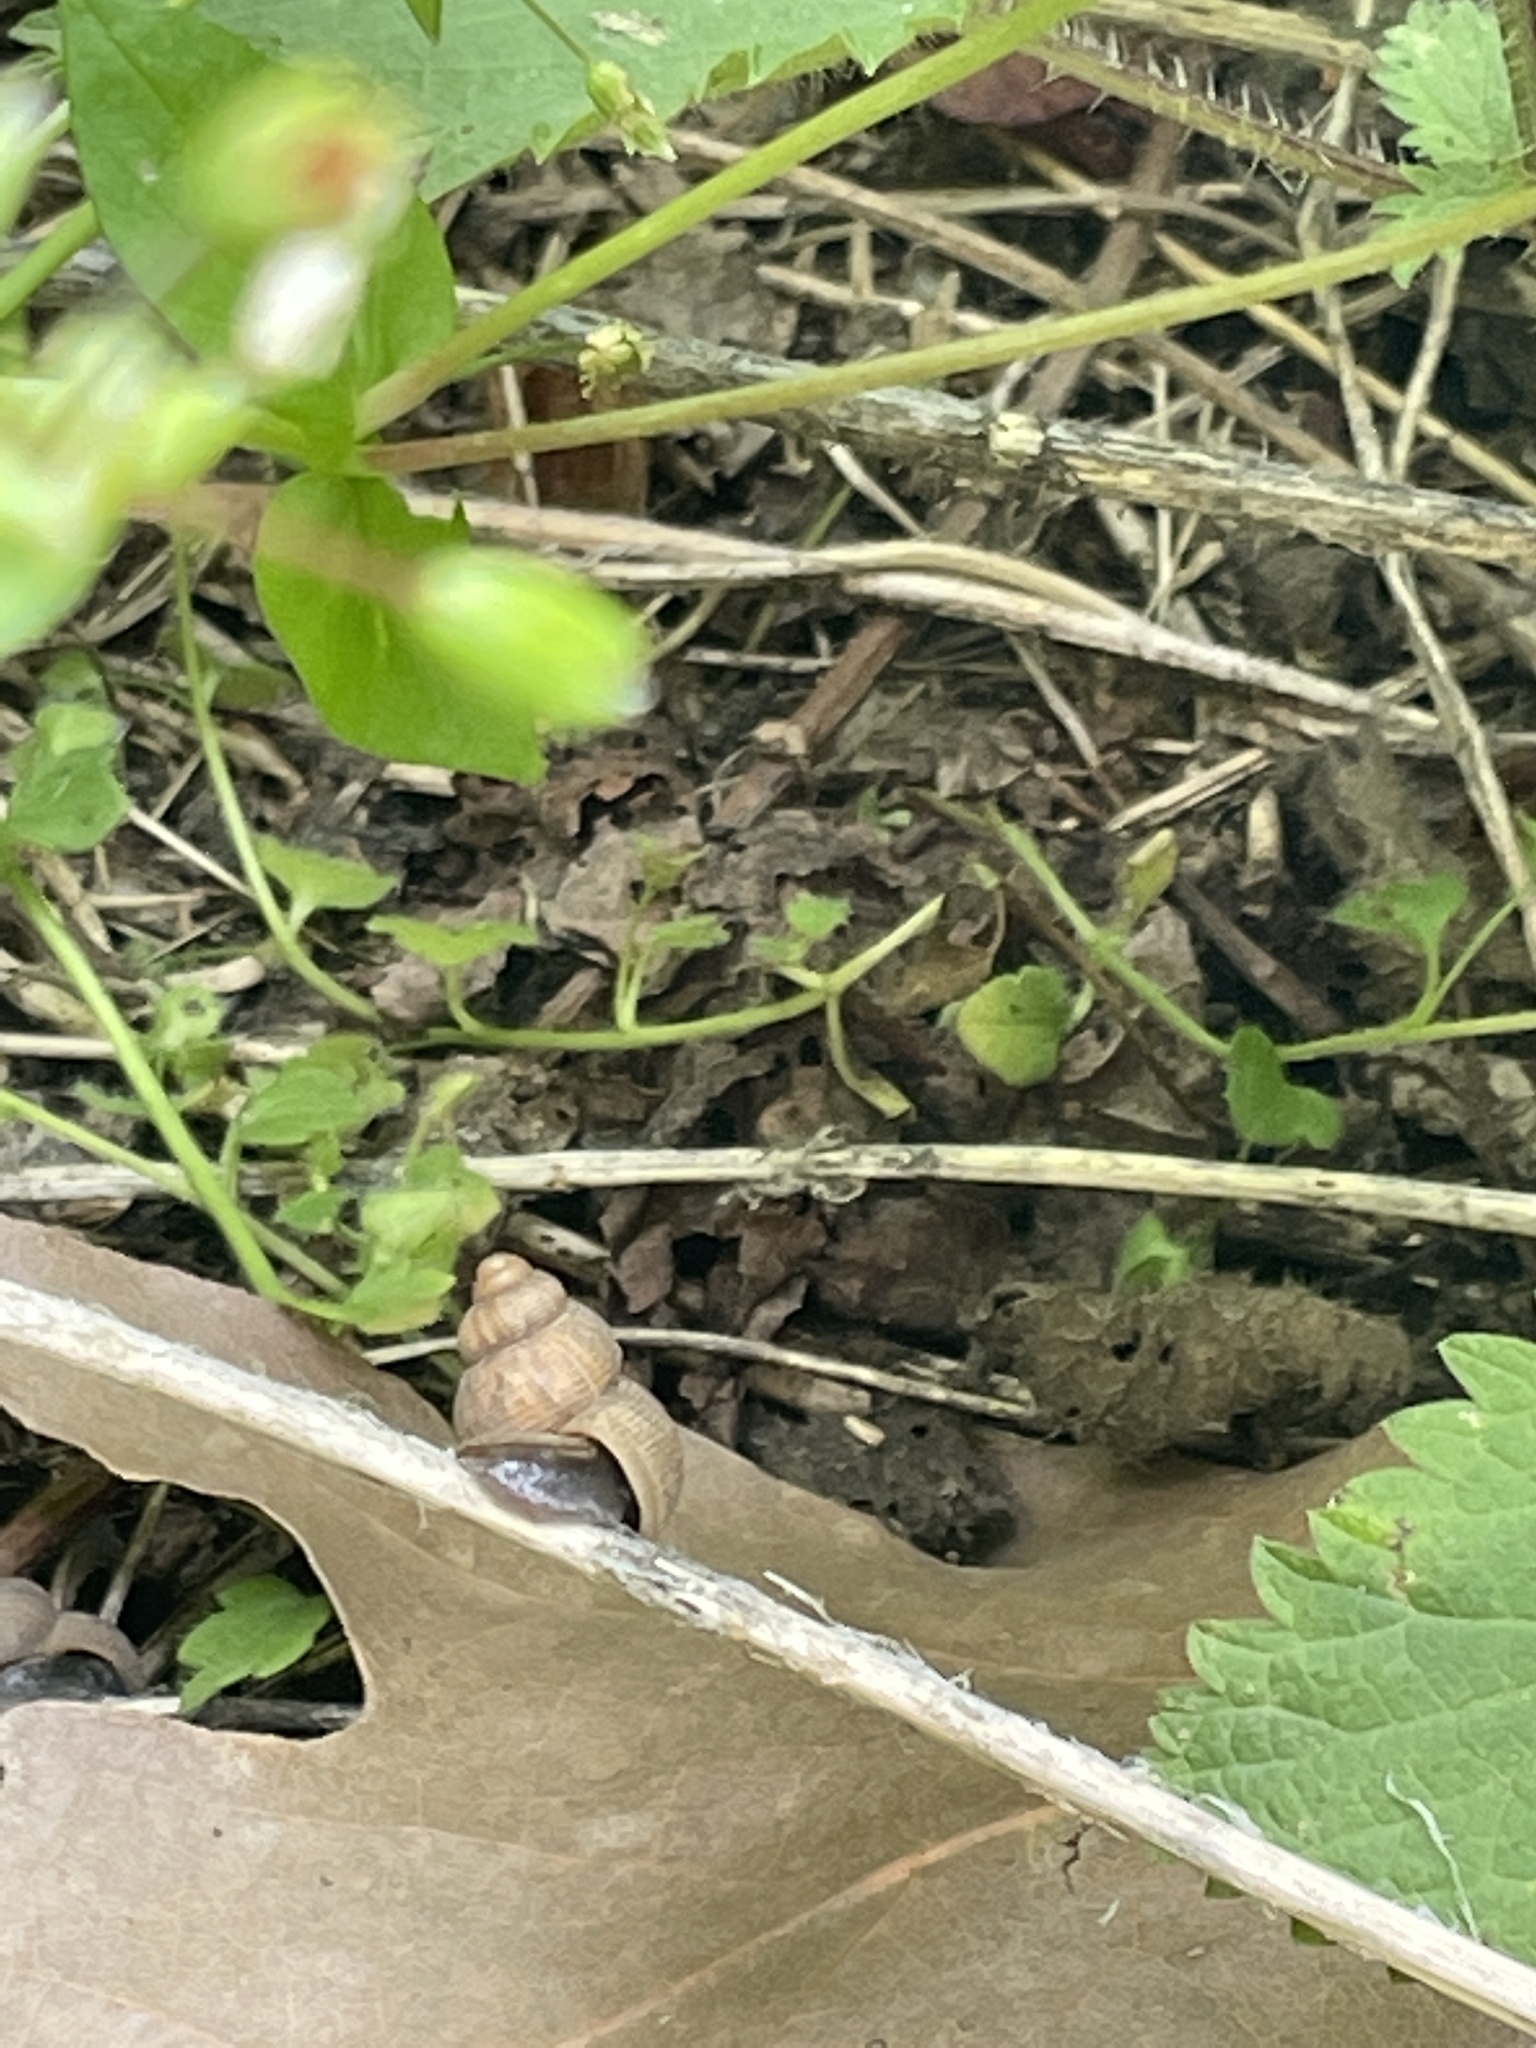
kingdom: Animalia
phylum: Mollusca
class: Gastropoda
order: Littorinimorpha
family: Pomatiidae
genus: Pomatias
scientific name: Pomatias elegans
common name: Red-mouthed snail
